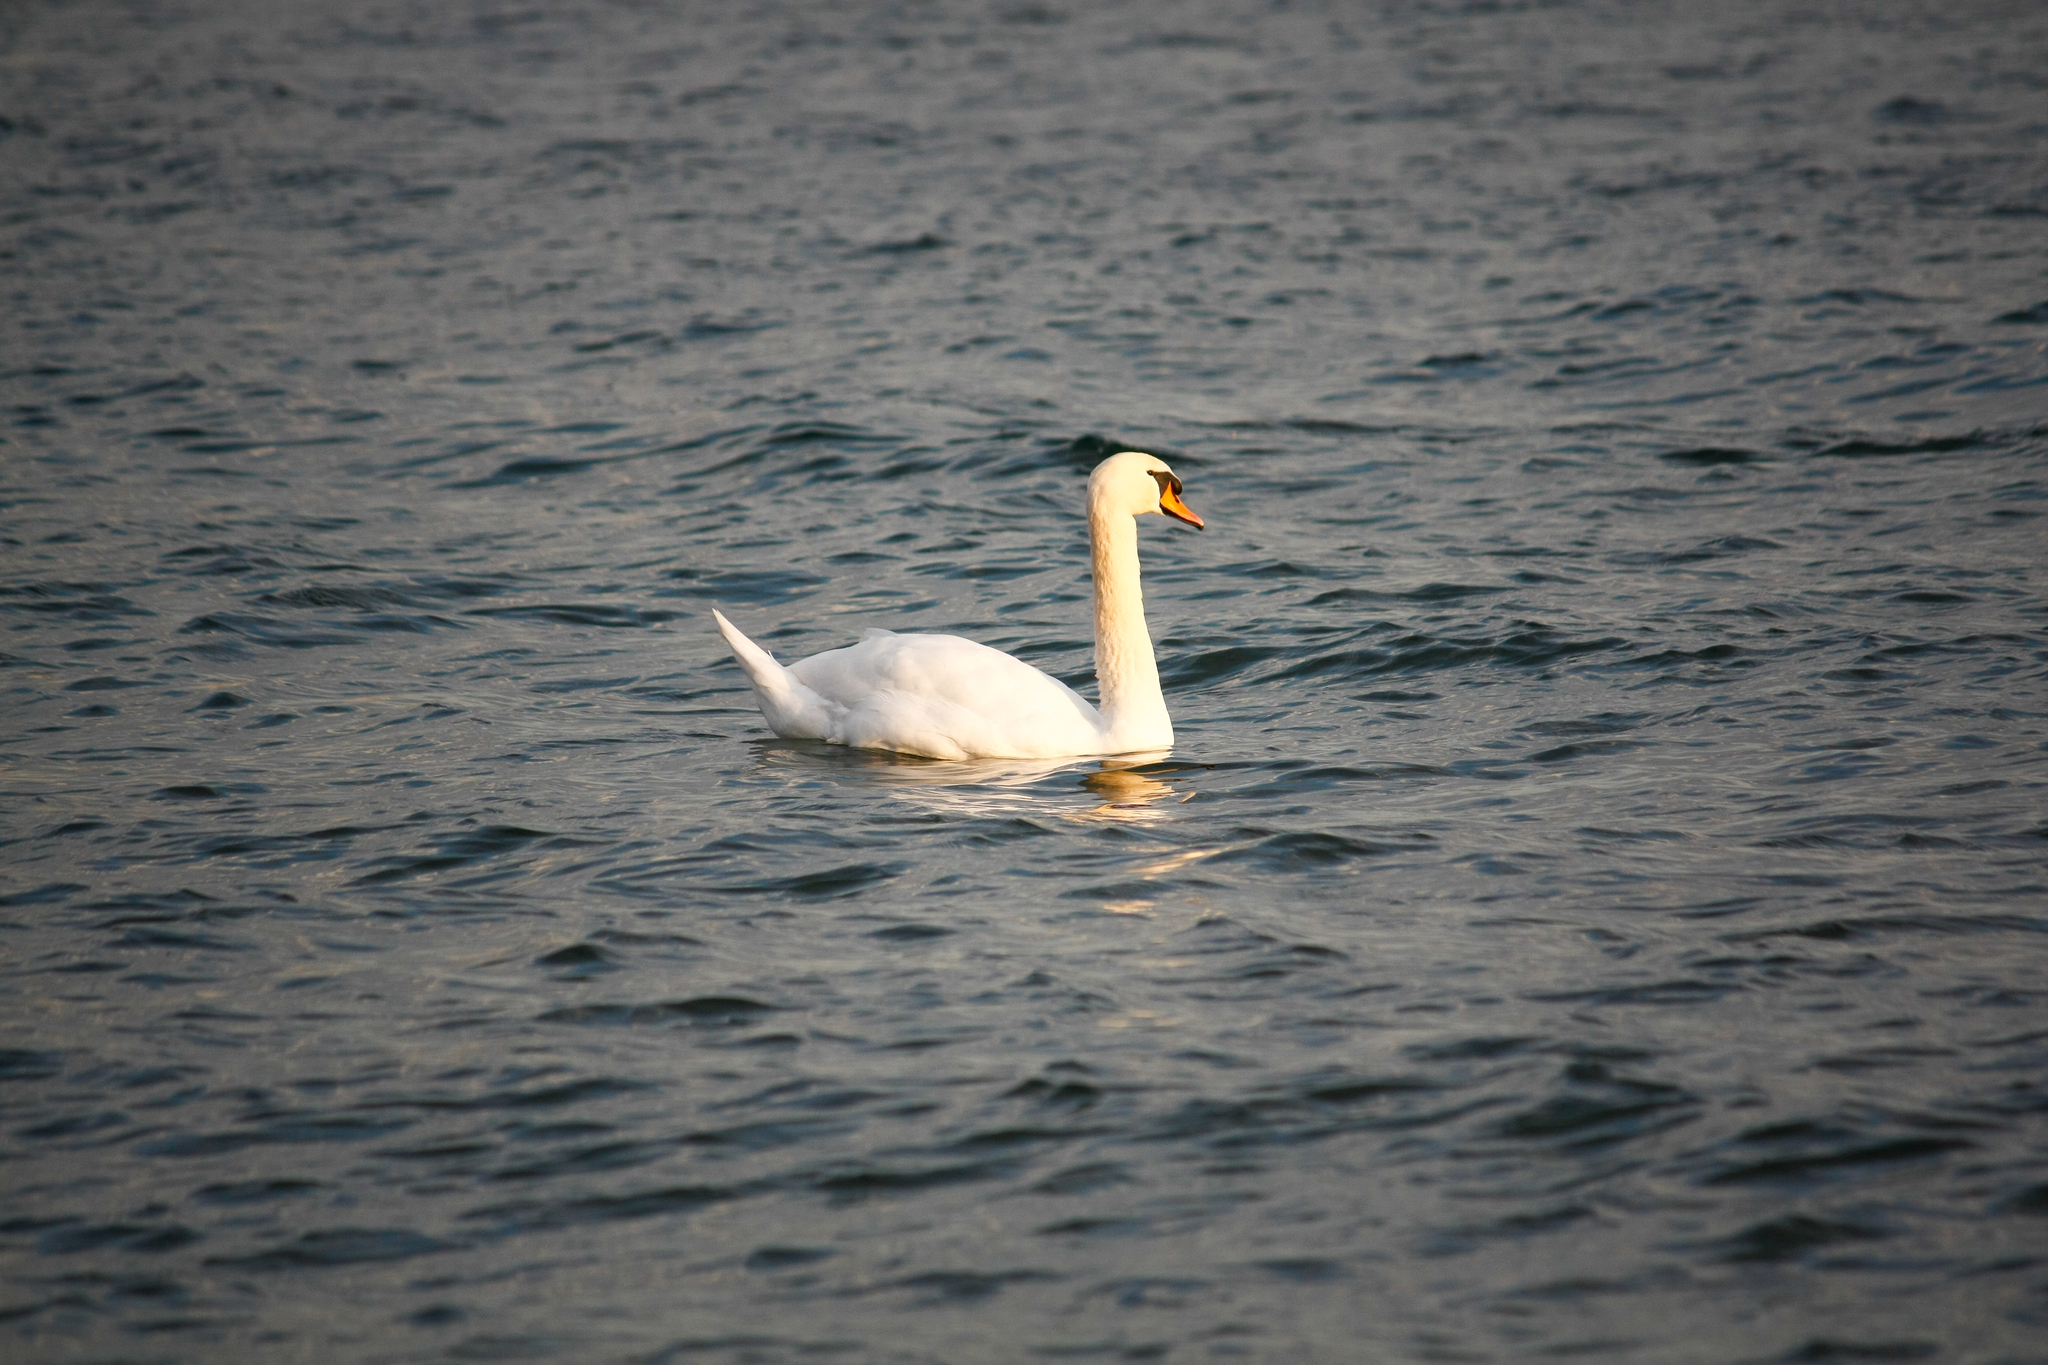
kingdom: Animalia
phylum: Chordata
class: Aves
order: Anseriformes
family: Anatidae
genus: Cygnus
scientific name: Cygnus olor
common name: Mute swan
